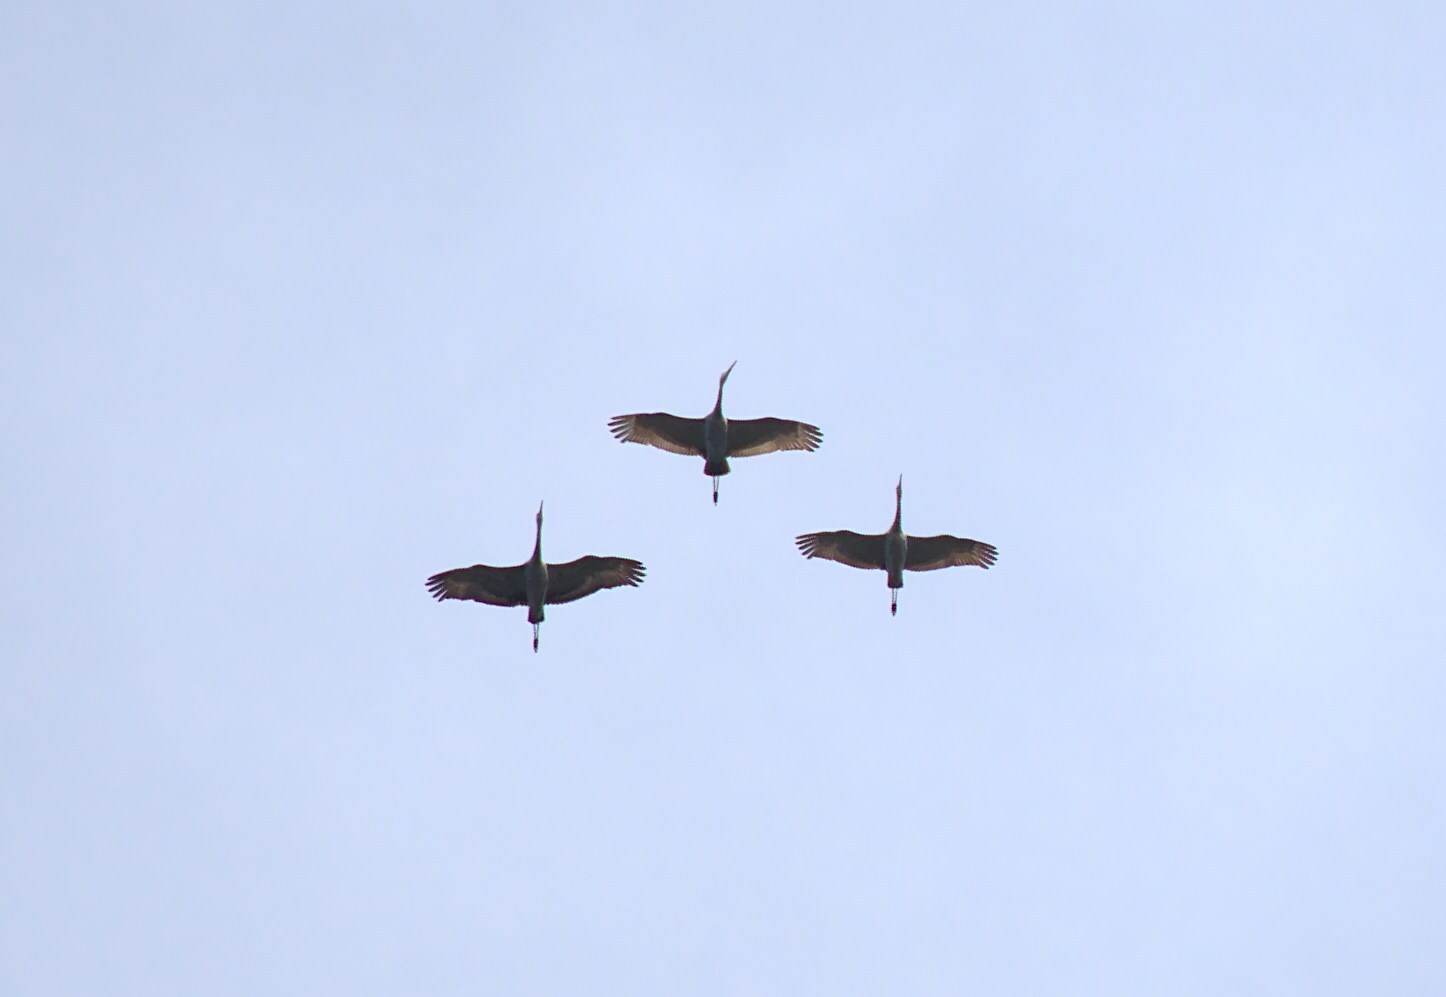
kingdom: Animalia
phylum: Chordata
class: Aves
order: Gruiformes
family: Gruidae
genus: Grus
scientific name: Grus canadensis
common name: Sandhill crane
